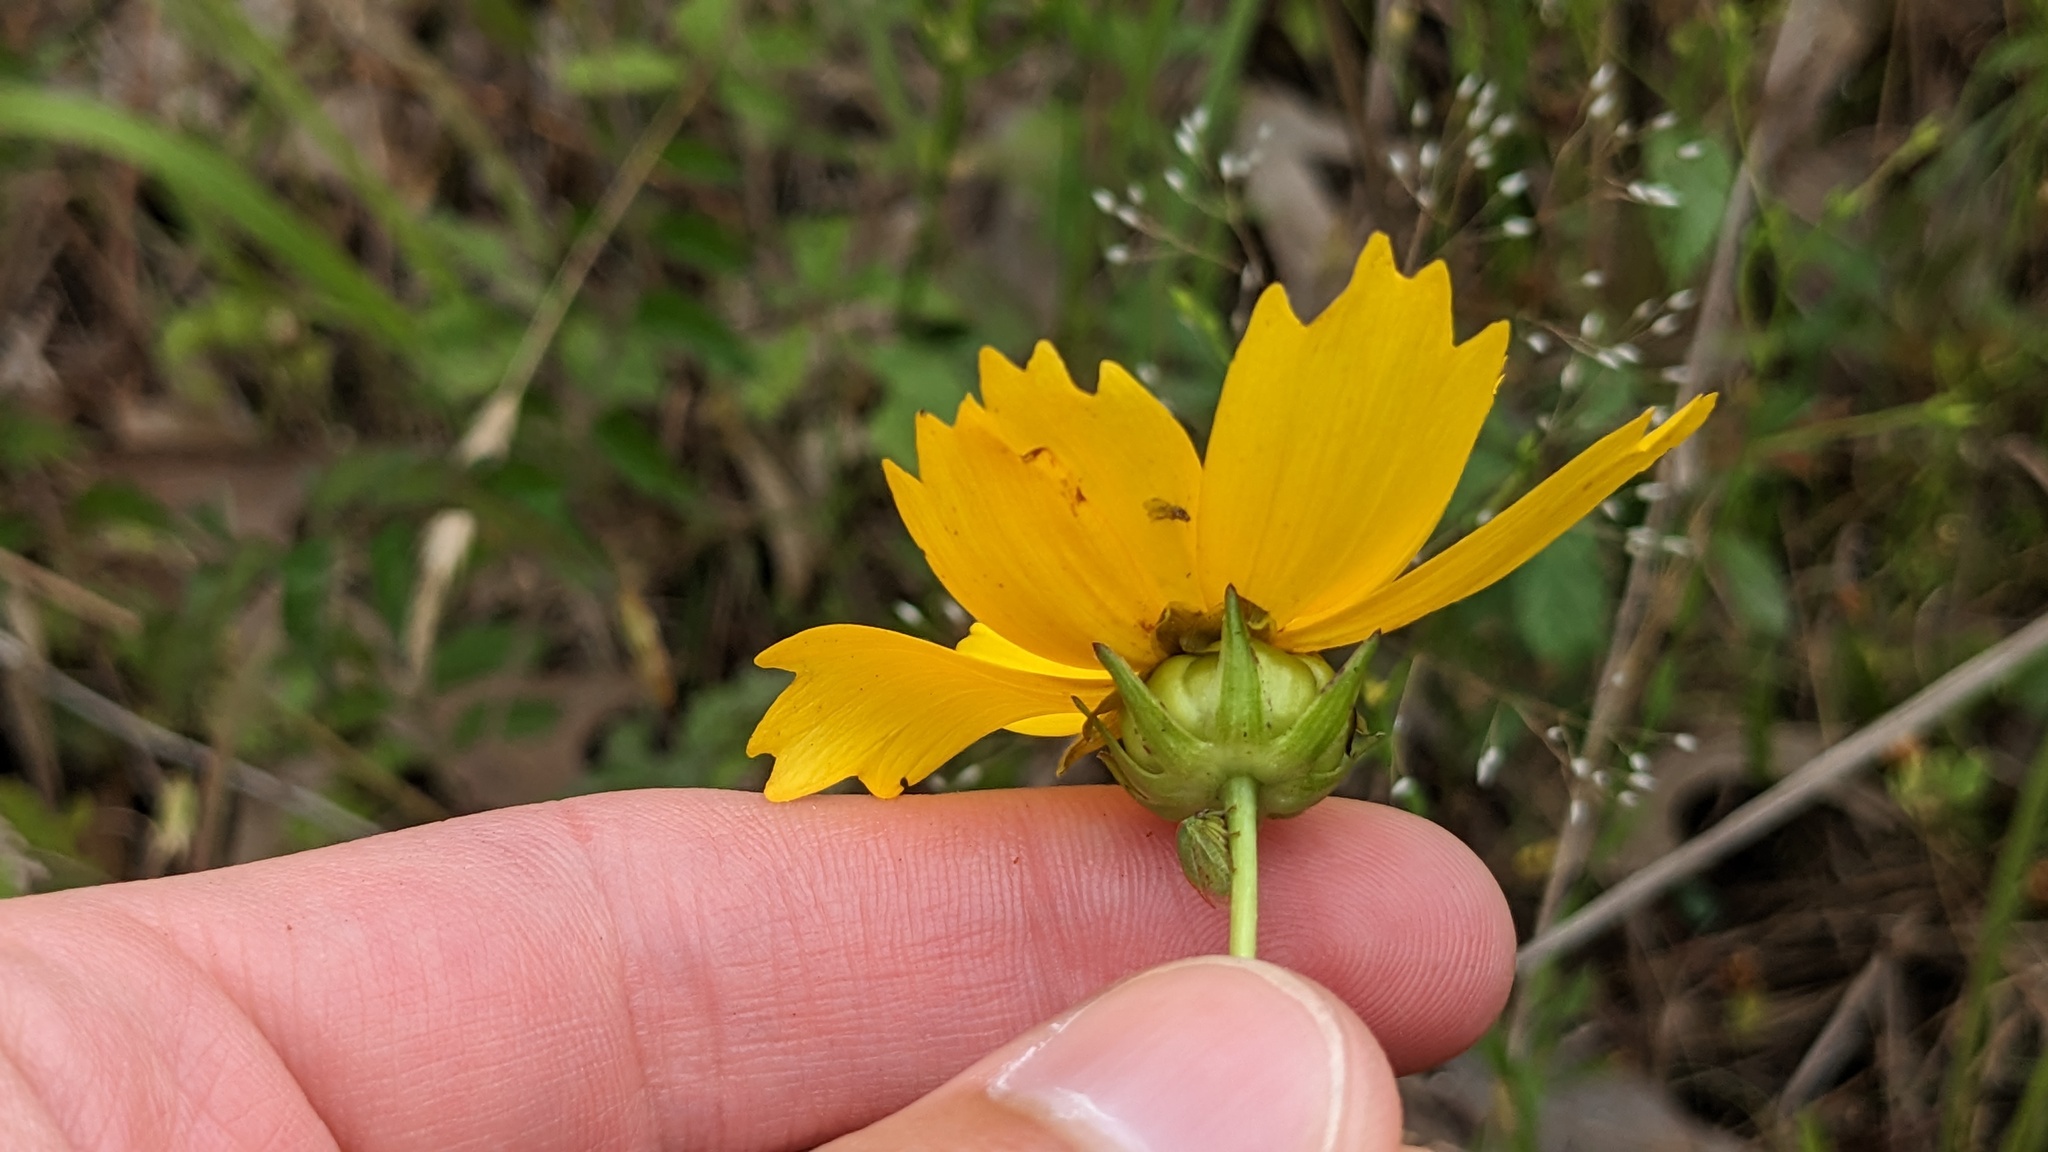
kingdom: Plantae
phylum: Tracheophyta
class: Magnoliopsida
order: Asterales
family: Asteraceae
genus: Coreopsis
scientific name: Coreopsis lanceolata
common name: Garden coreopsis
